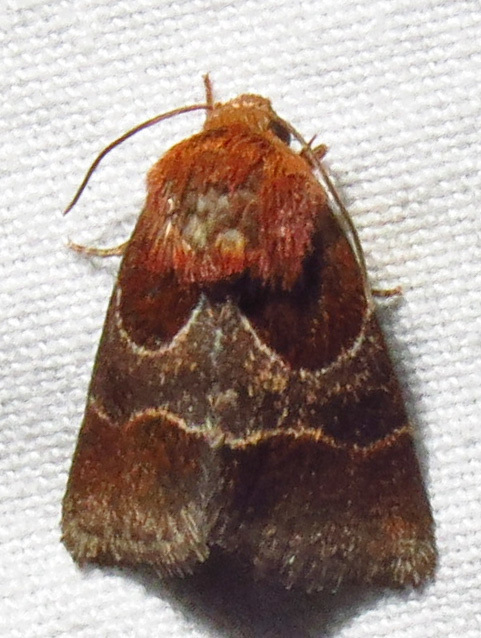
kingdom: Animalia
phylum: Arthropoda
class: Insecta
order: Lepidoptera
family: Noctuidae
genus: Schinia
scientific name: Schinia arcigera
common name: Arcigera flower moth
